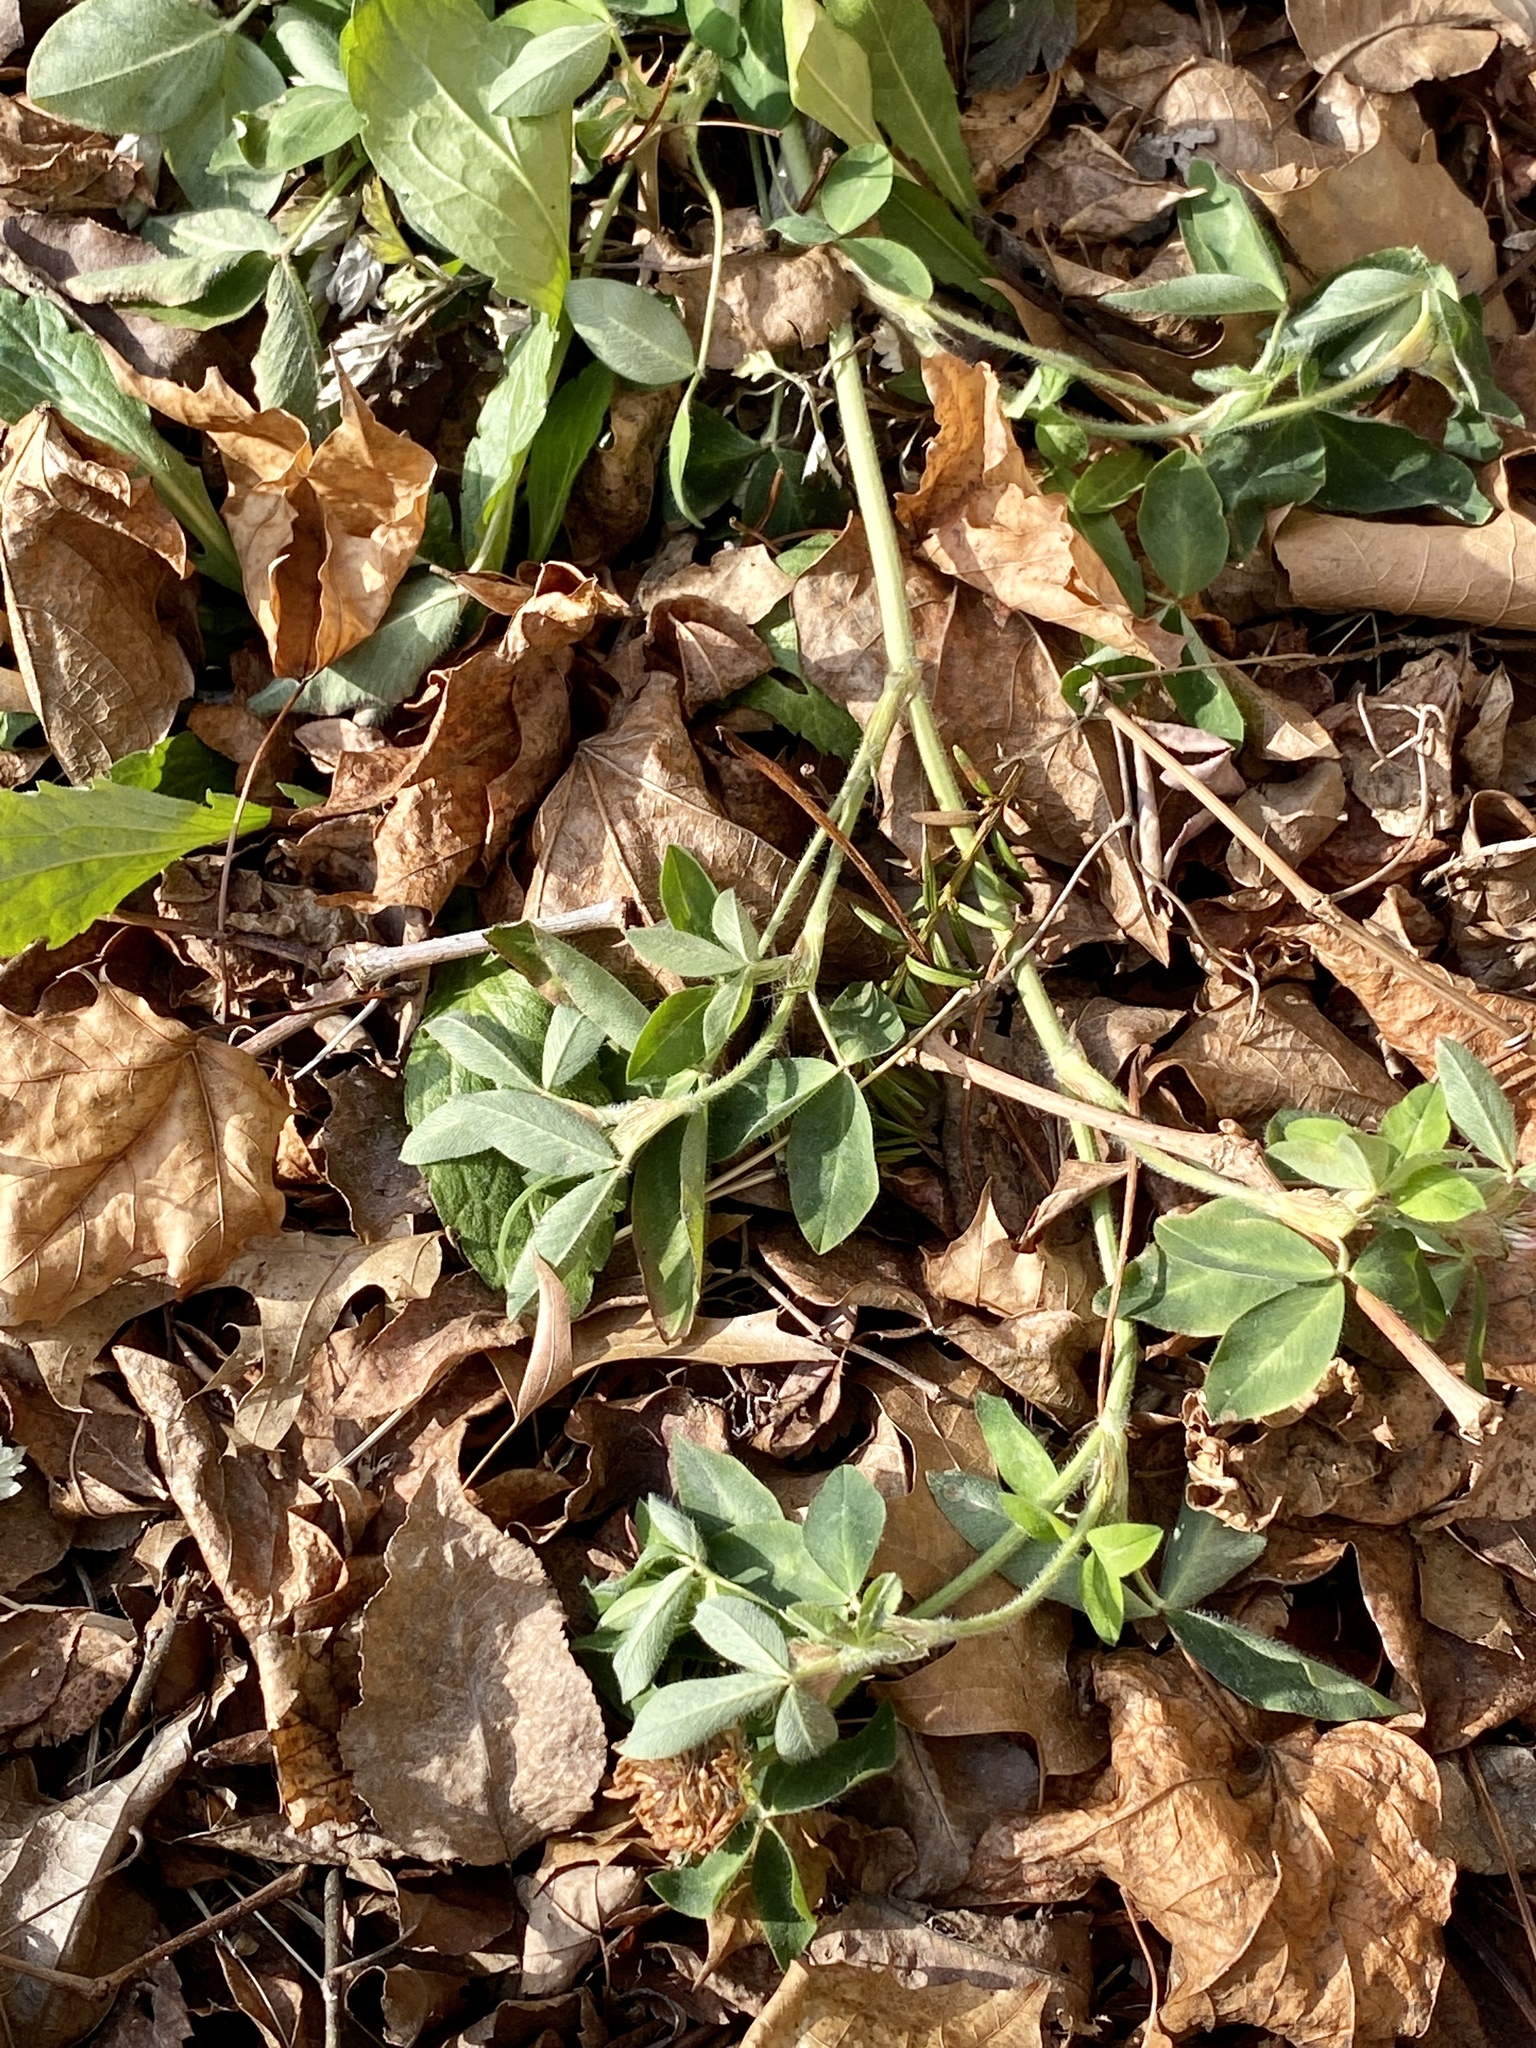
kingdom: Plantae
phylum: Tracheophyta
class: Magnoliopsida
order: Fabales
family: Fabaceae
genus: Trifolium
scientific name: Trifolium pratense
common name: Red clover
